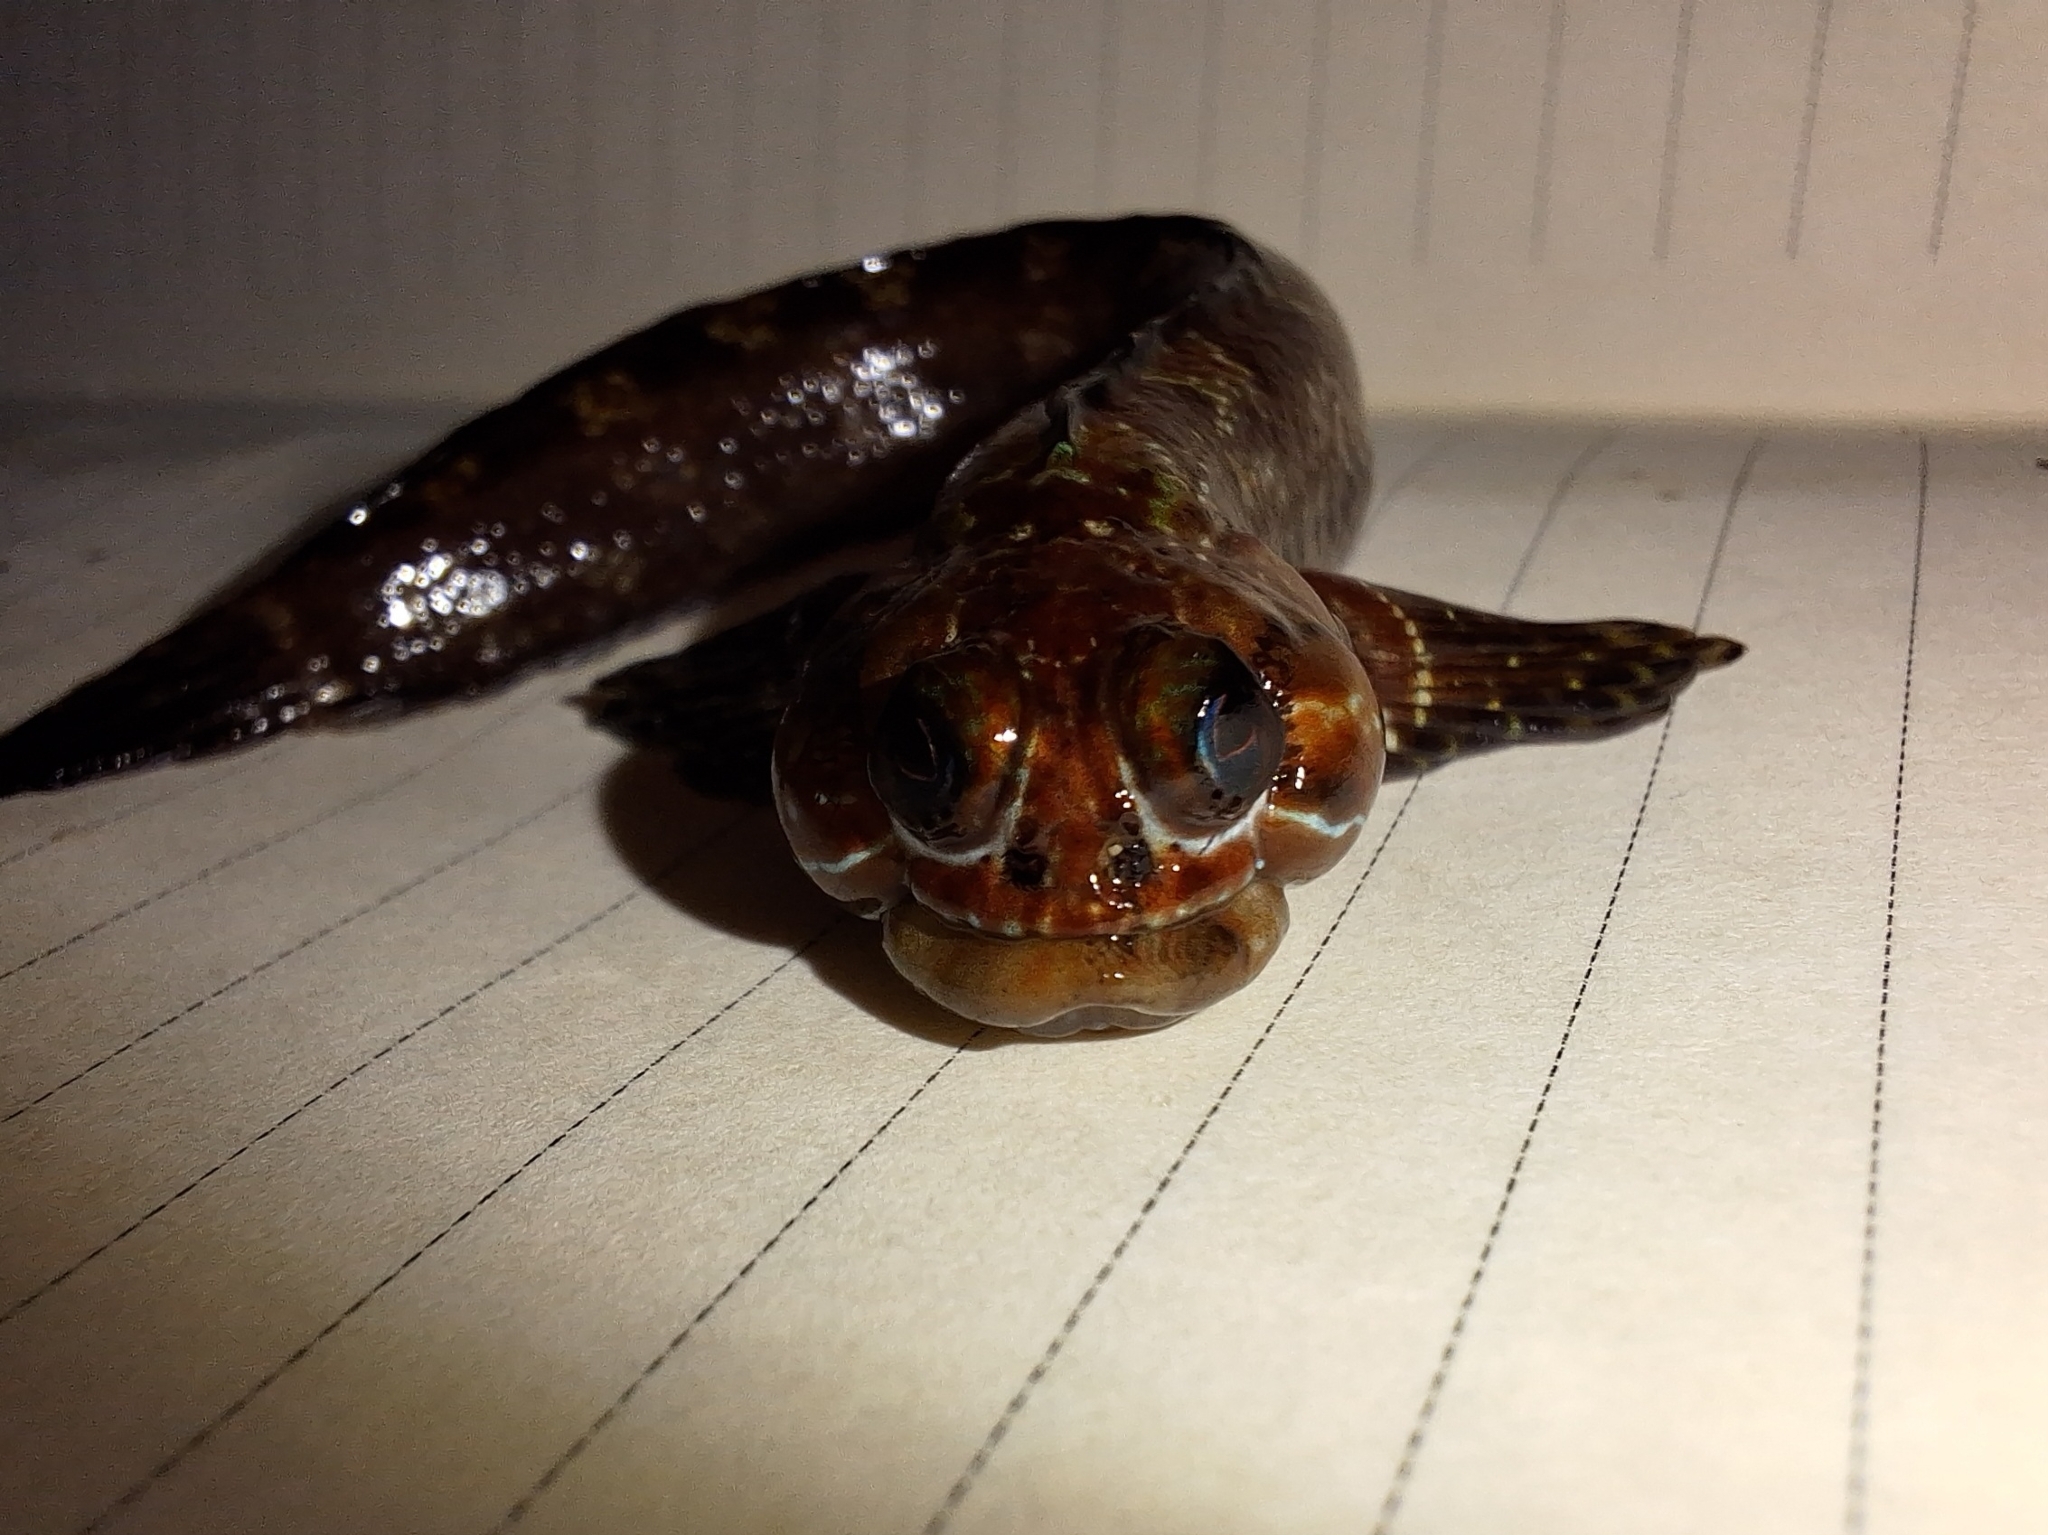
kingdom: Animalia
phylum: Chordata
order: Perciformes
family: Labrisomidae
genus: Dialommus
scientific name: Dialommus fuscus
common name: Galápagos four-eyed blenny
